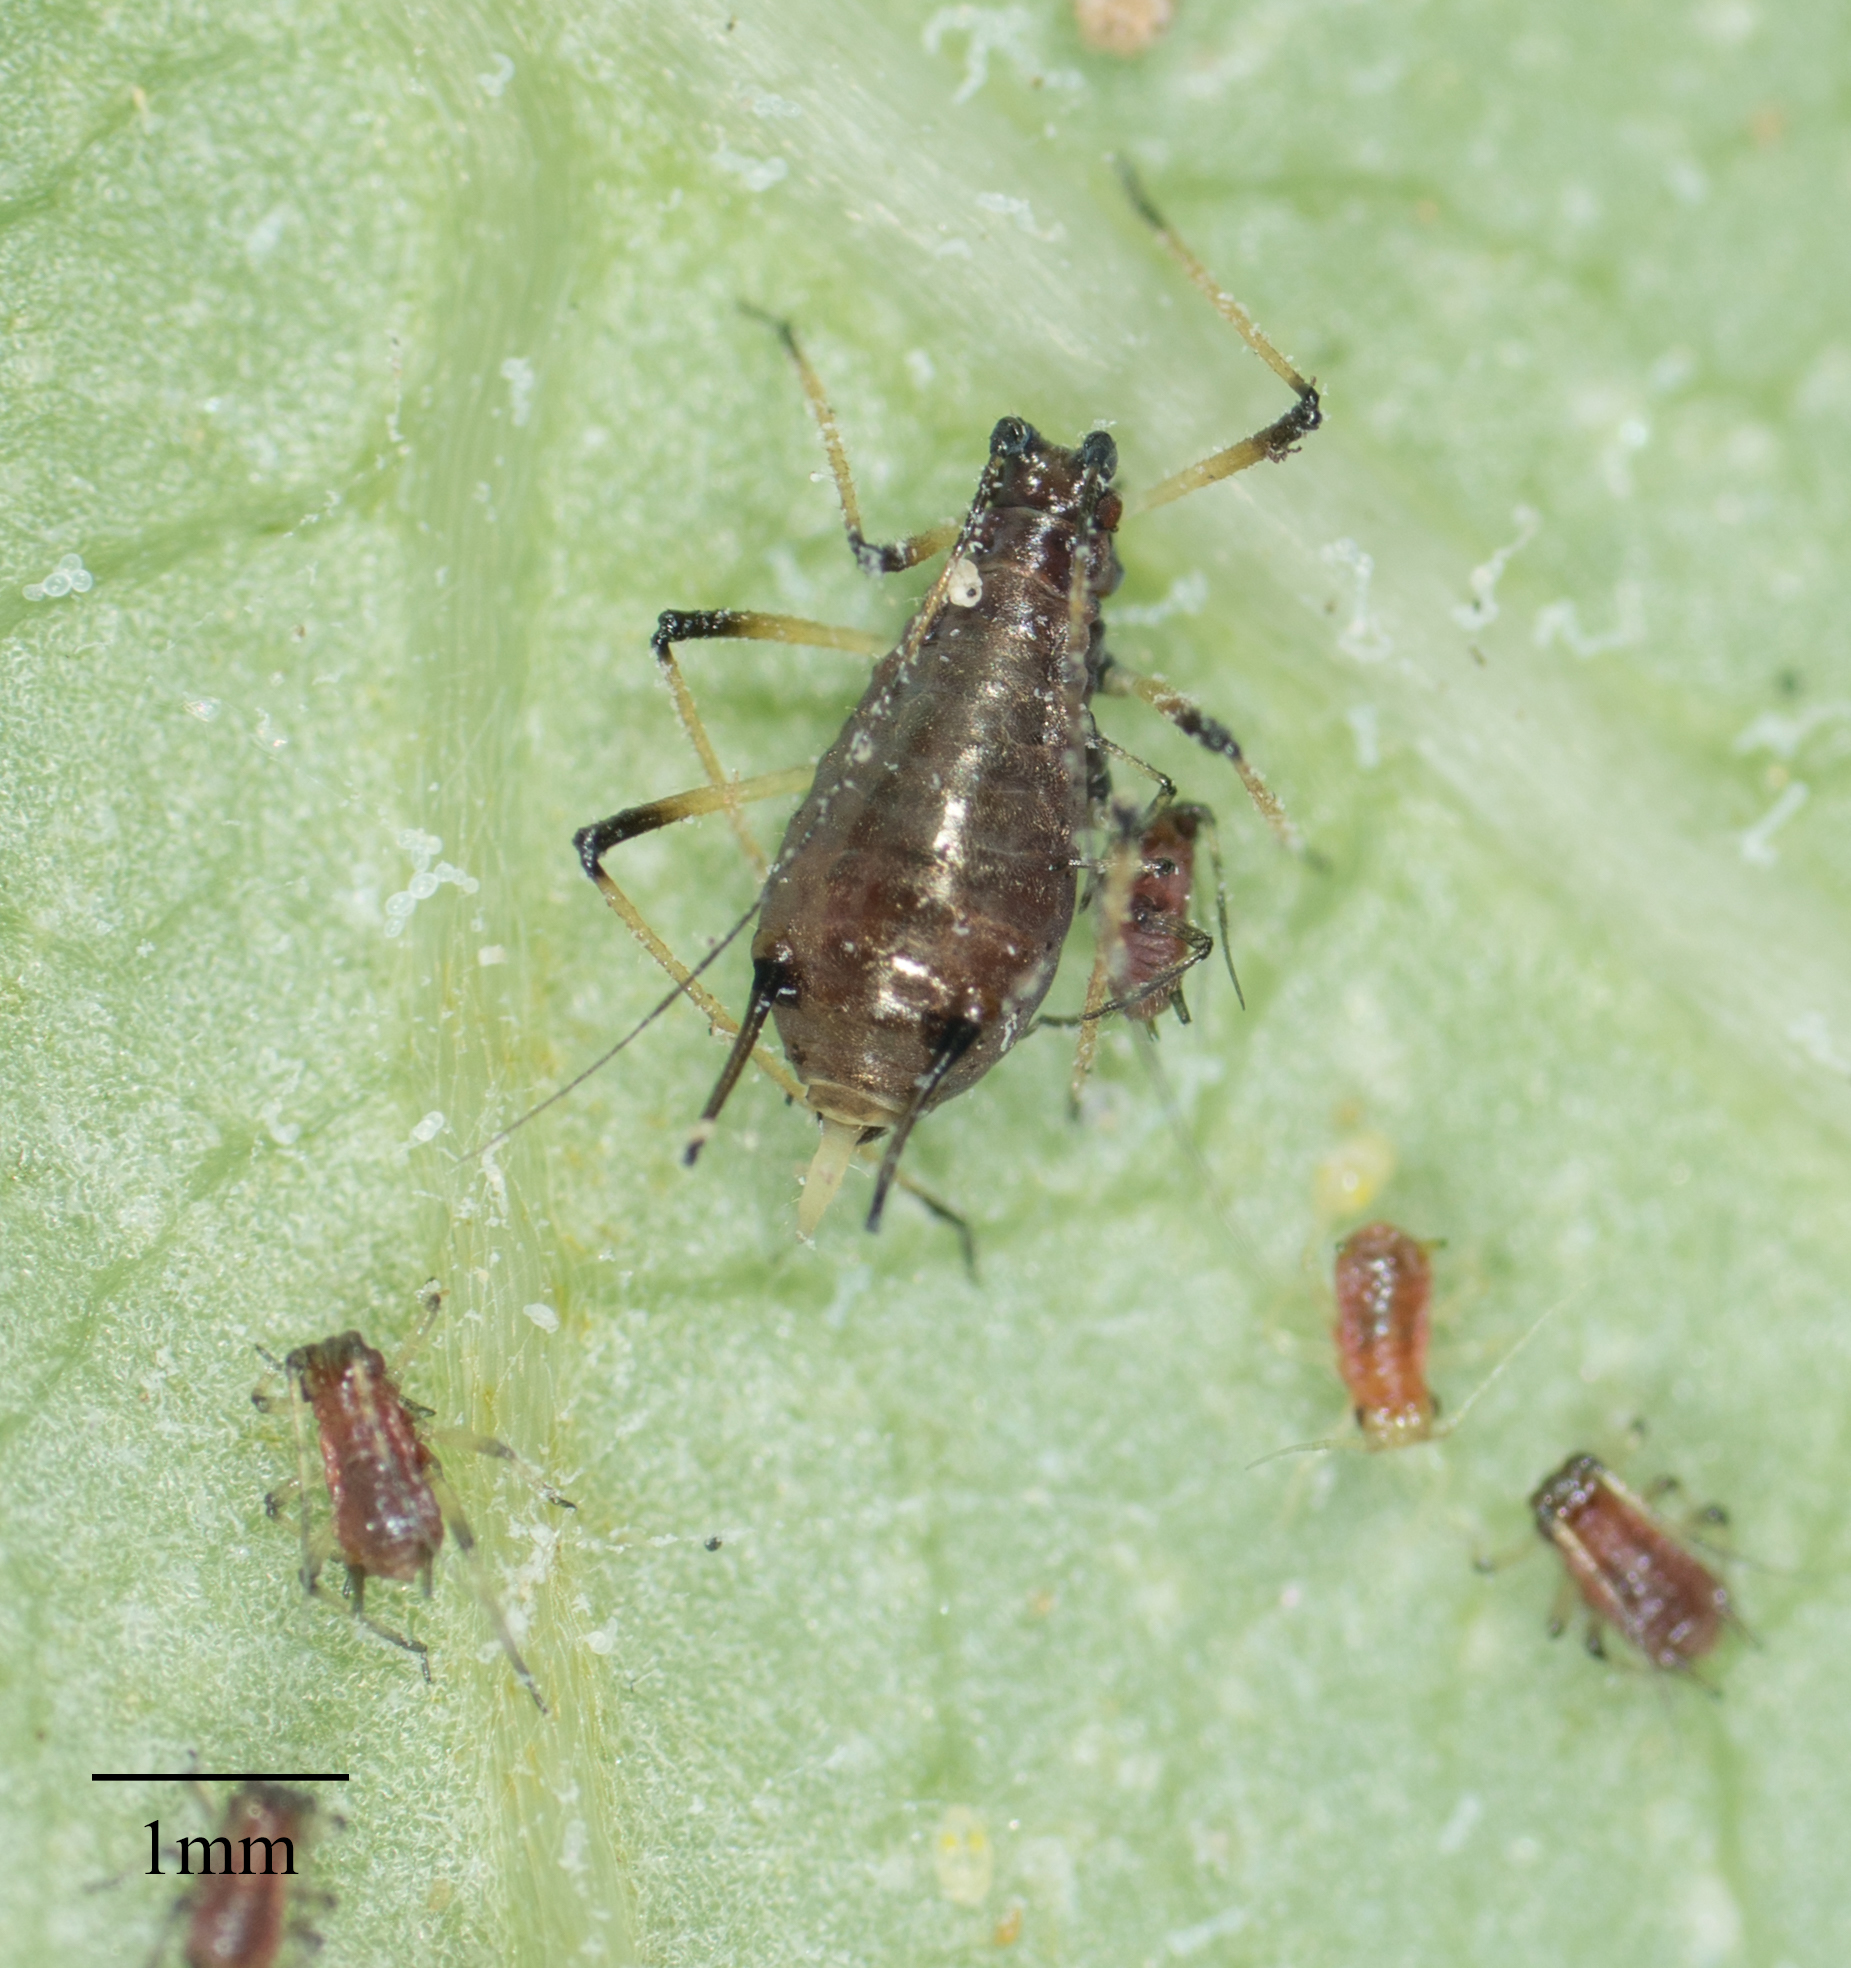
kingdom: Animalia
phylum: Arthropoda
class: Insecta
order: Hemiptera
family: Aphididae
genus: Uroleucon
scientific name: Uroleucon sonchi
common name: Large sowthistle aphid
